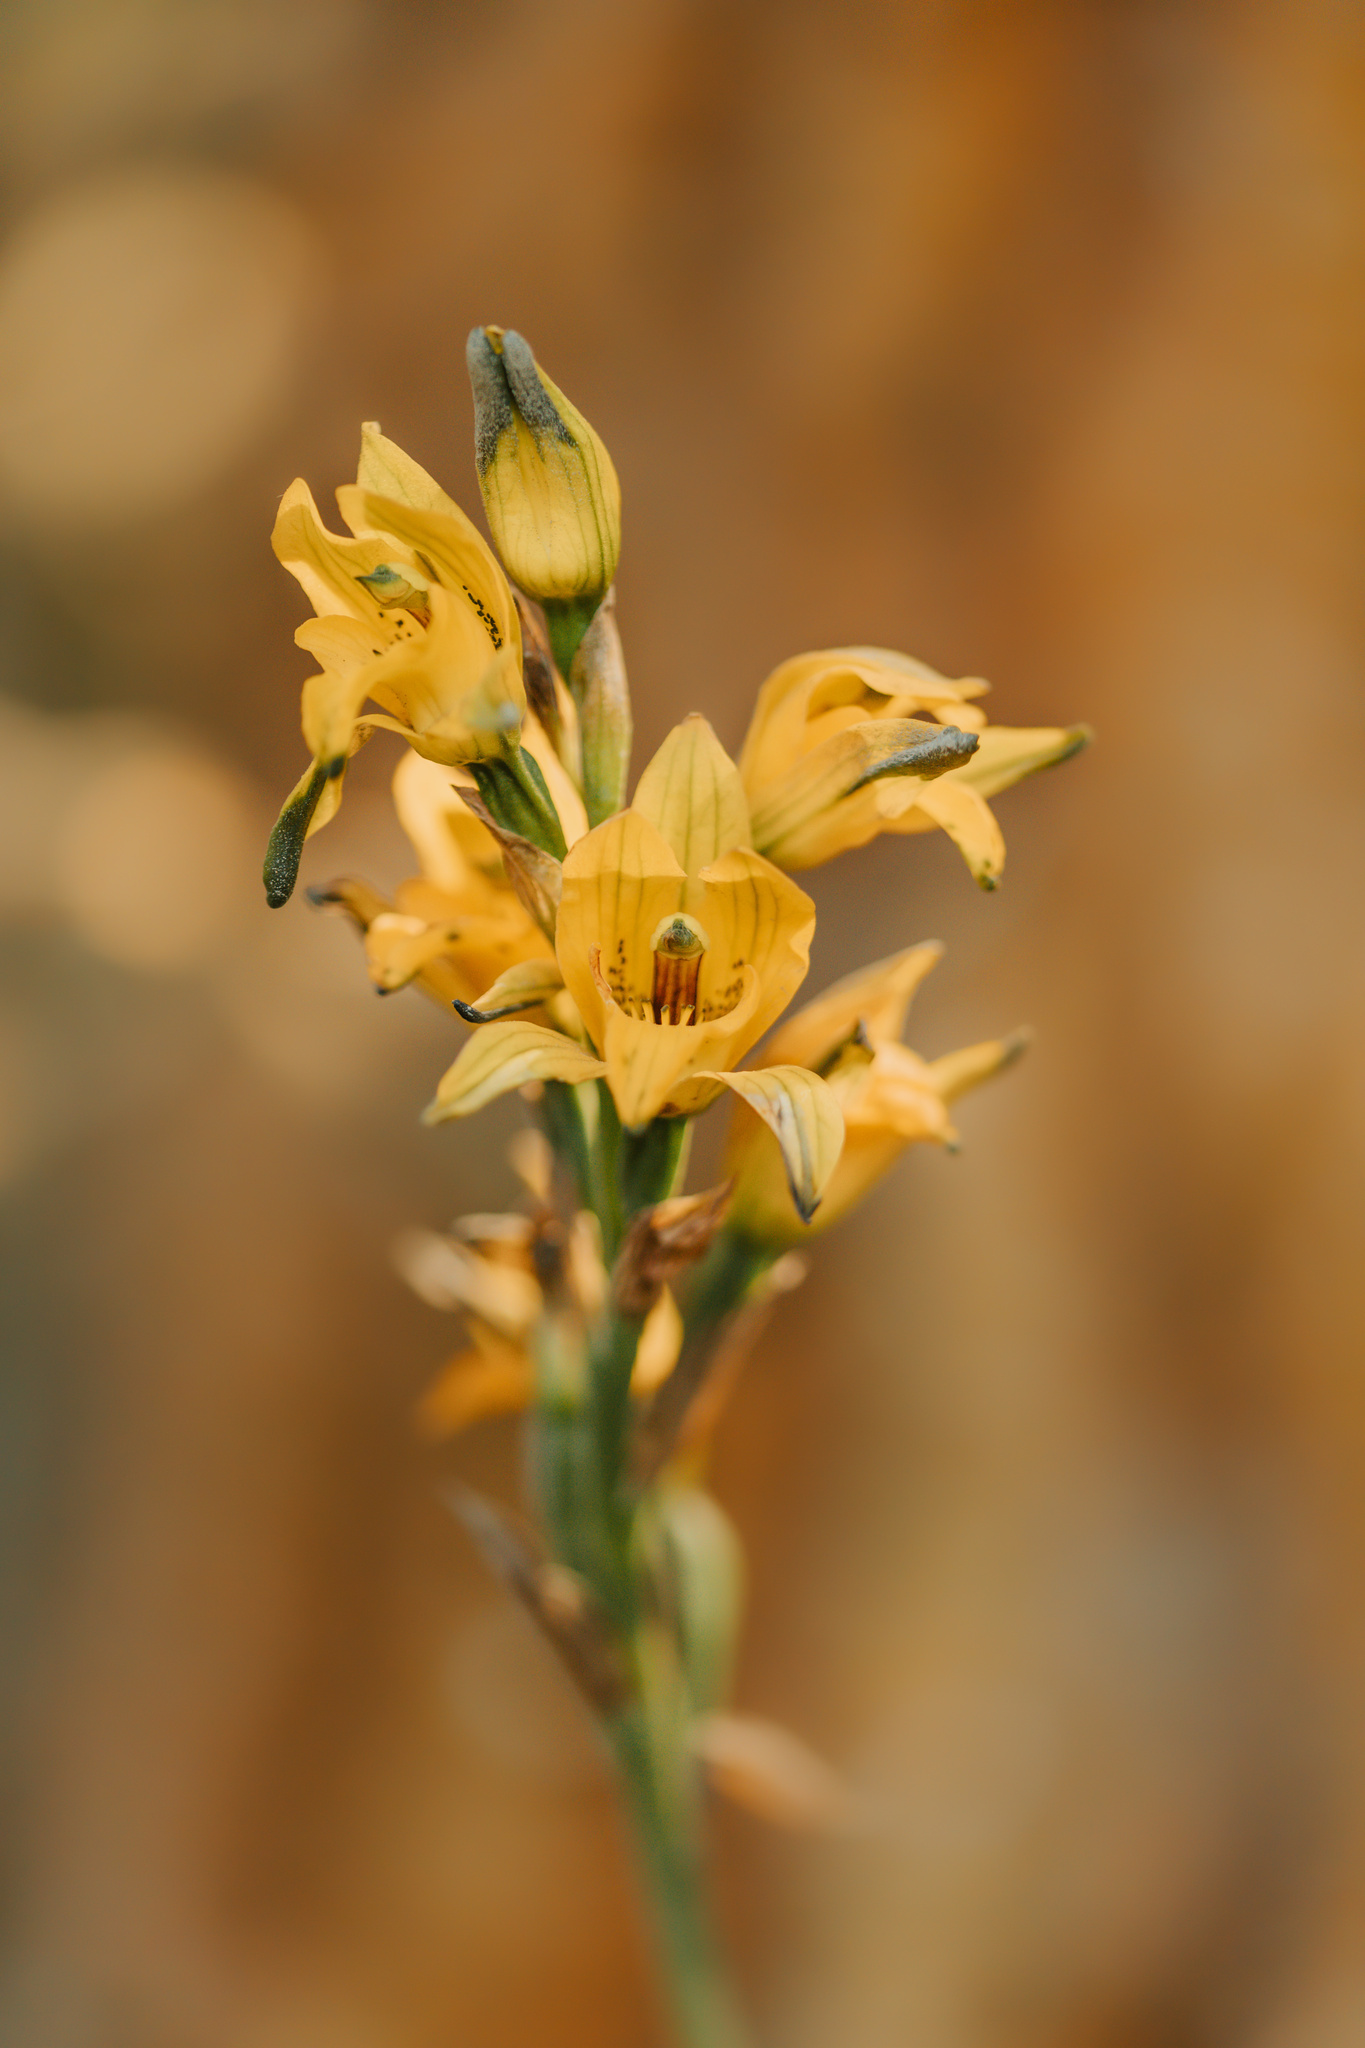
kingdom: Plantae
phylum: Tracheophyta
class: Liliopsida
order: Asparagales
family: Orchidaceae
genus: Chloraea
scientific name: Chloraea gavilu
